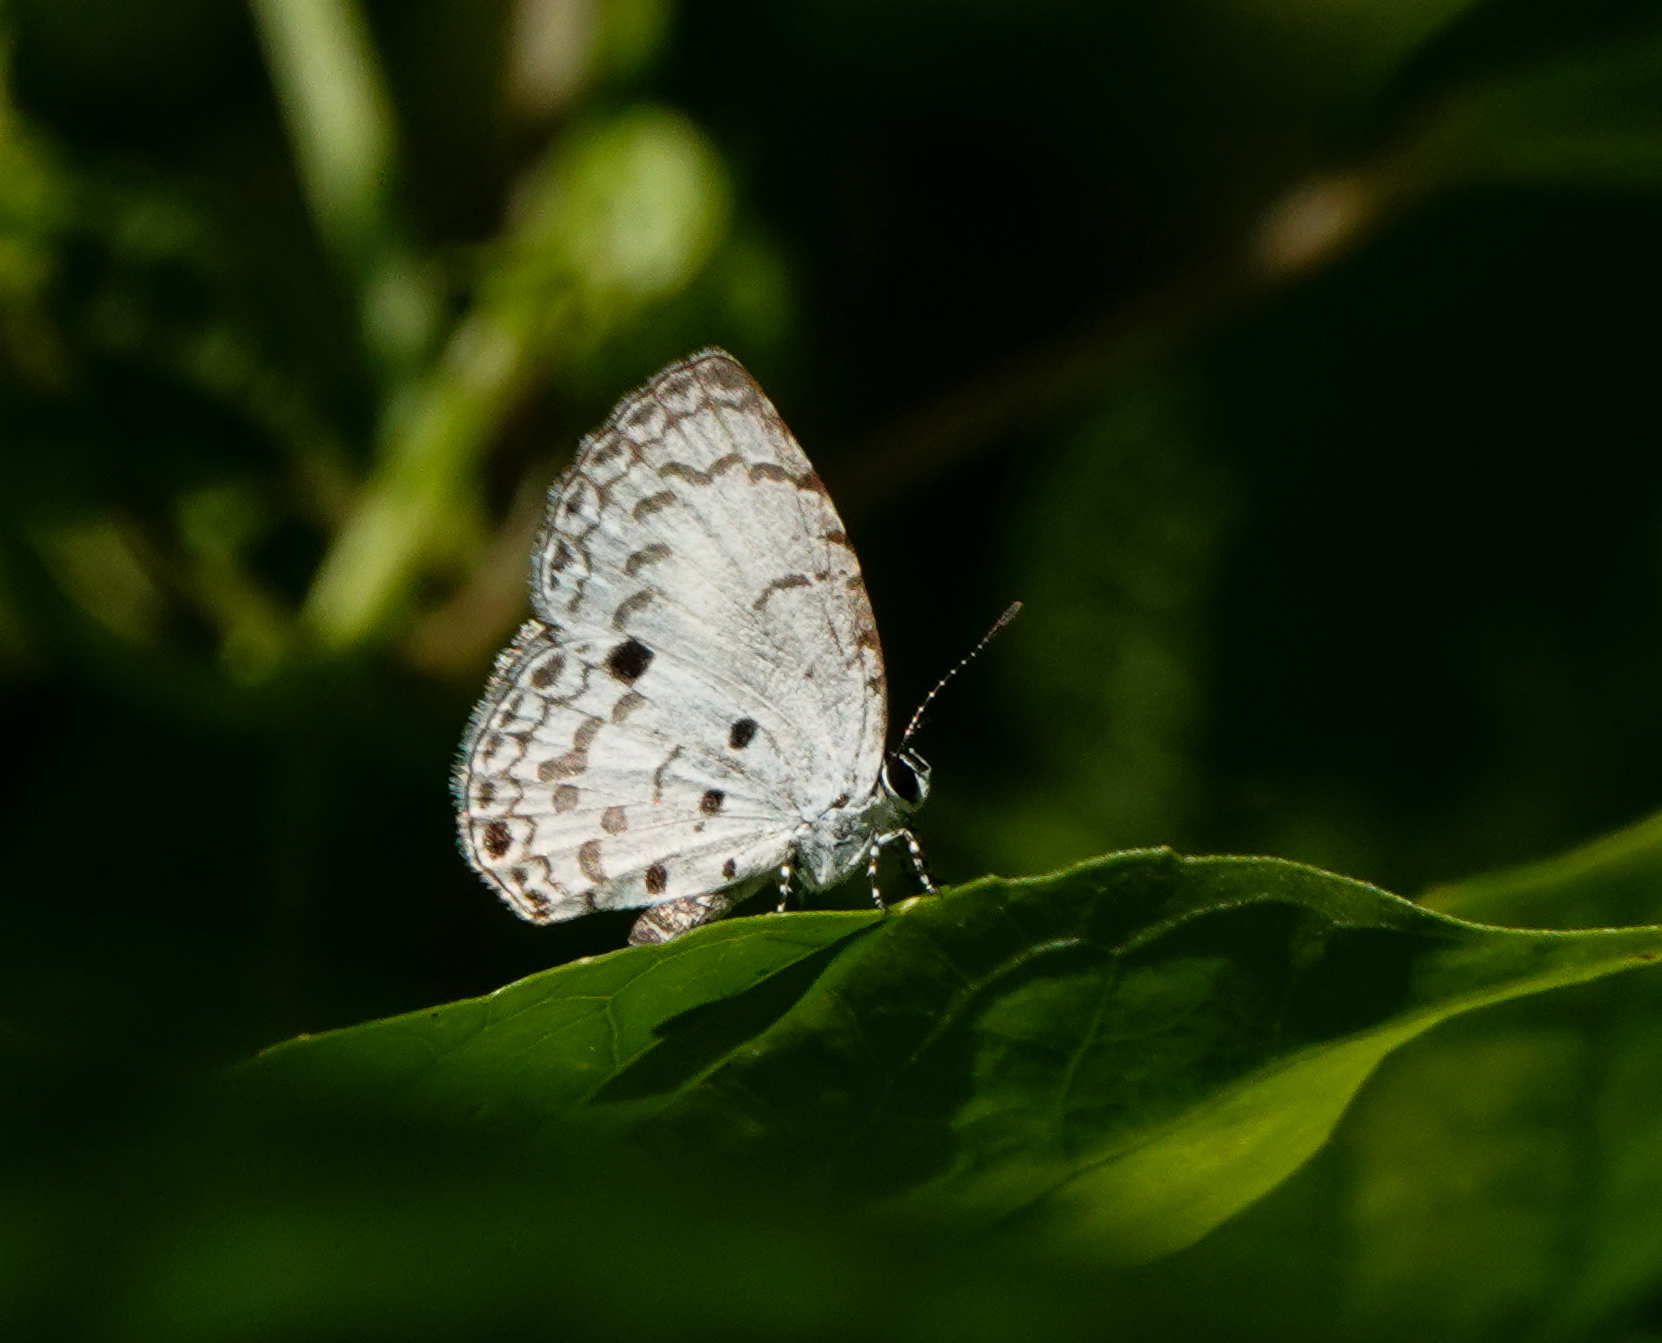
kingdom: Animalia
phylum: Arthropoda
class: Insecta
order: Lepidoptera
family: Lycaenidae
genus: Megisba
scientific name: Megisba malaya
